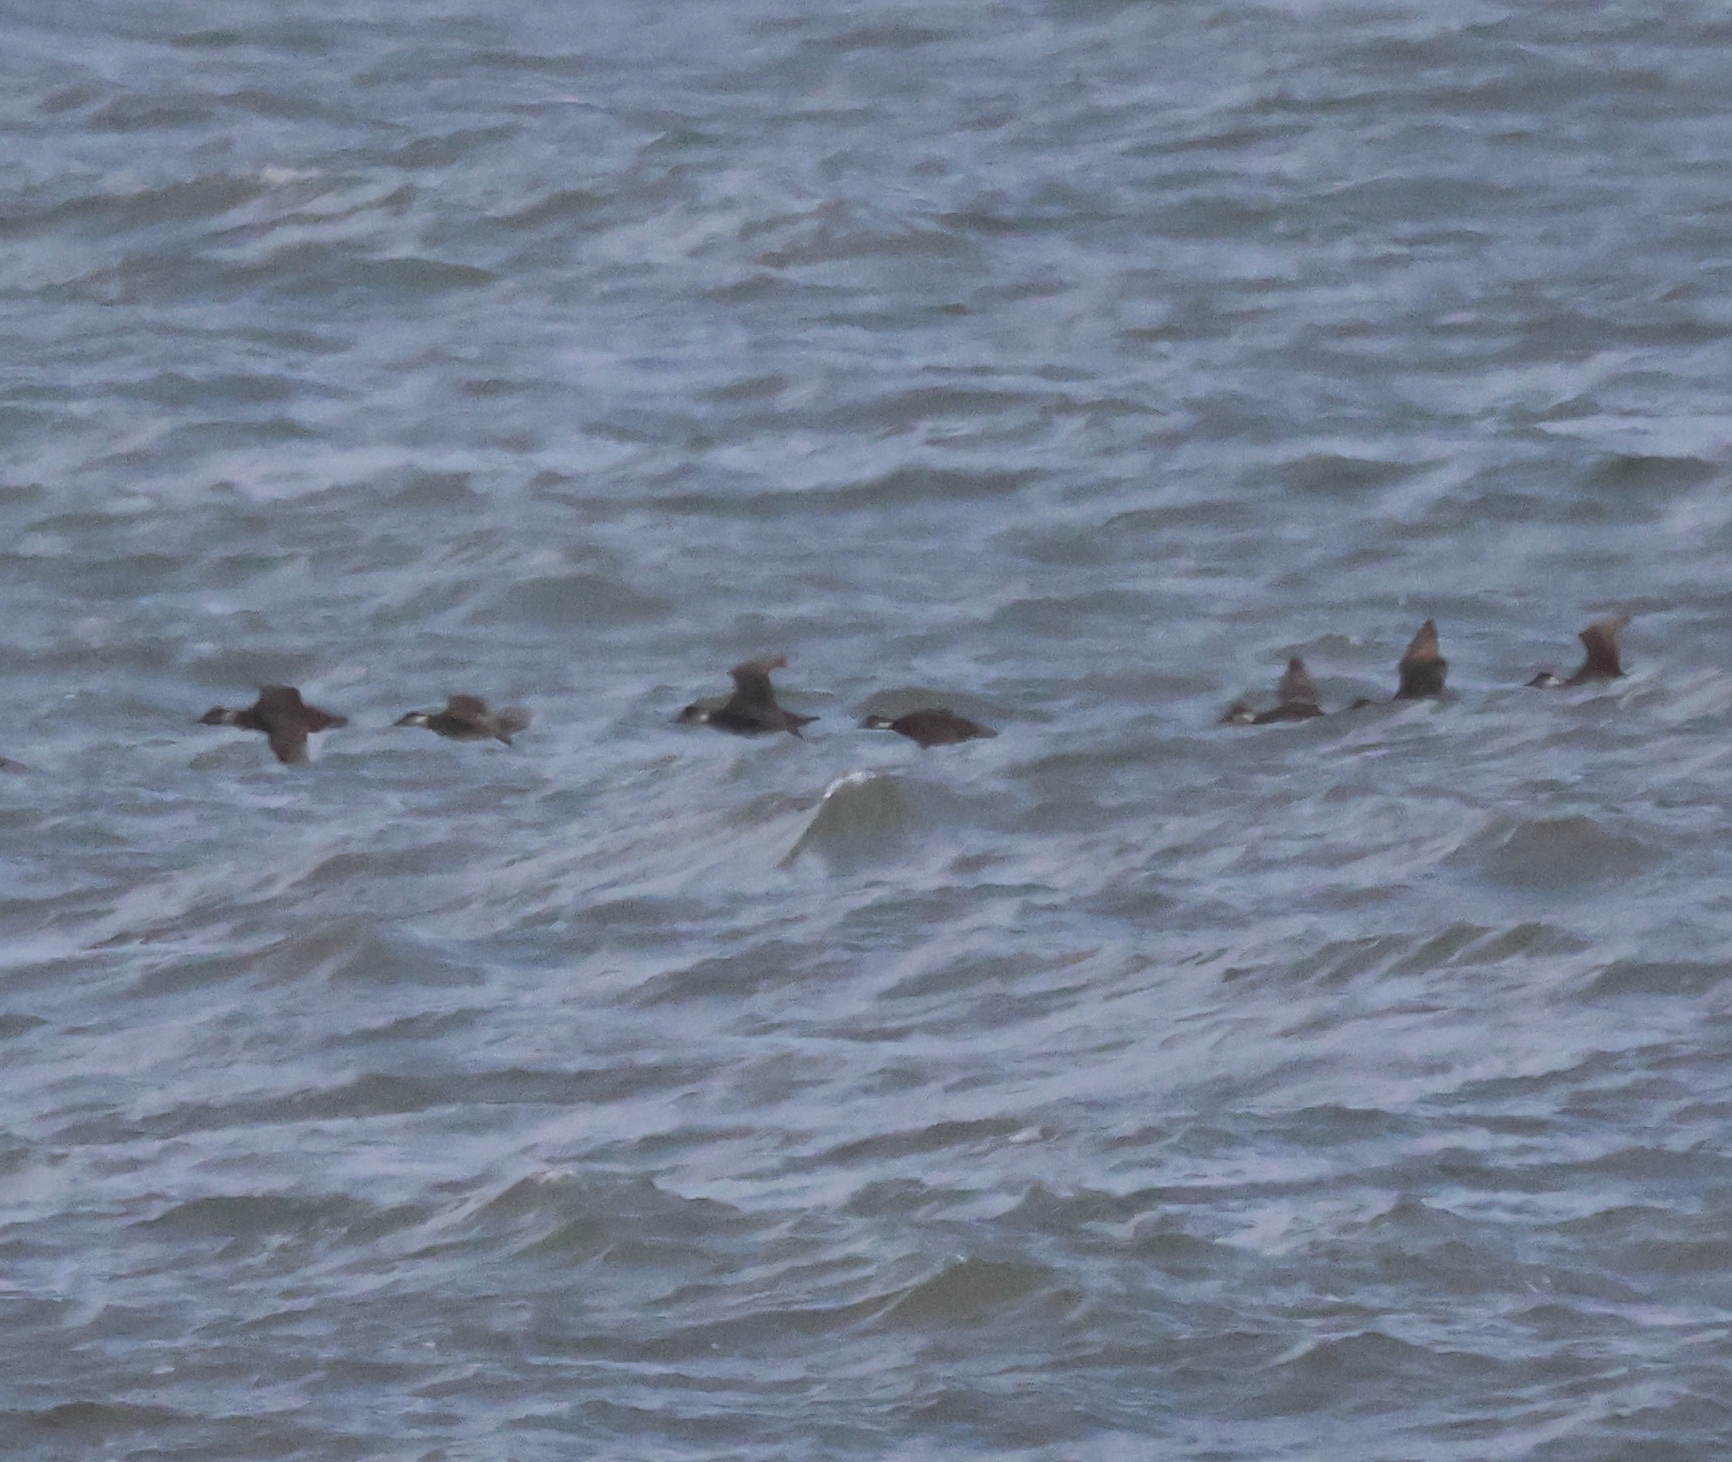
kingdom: Animalia
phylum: Chordata
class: Aves
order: Anseriformes
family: Anatidae
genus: Melanitta
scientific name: Melanitta nigra
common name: Common scoter
